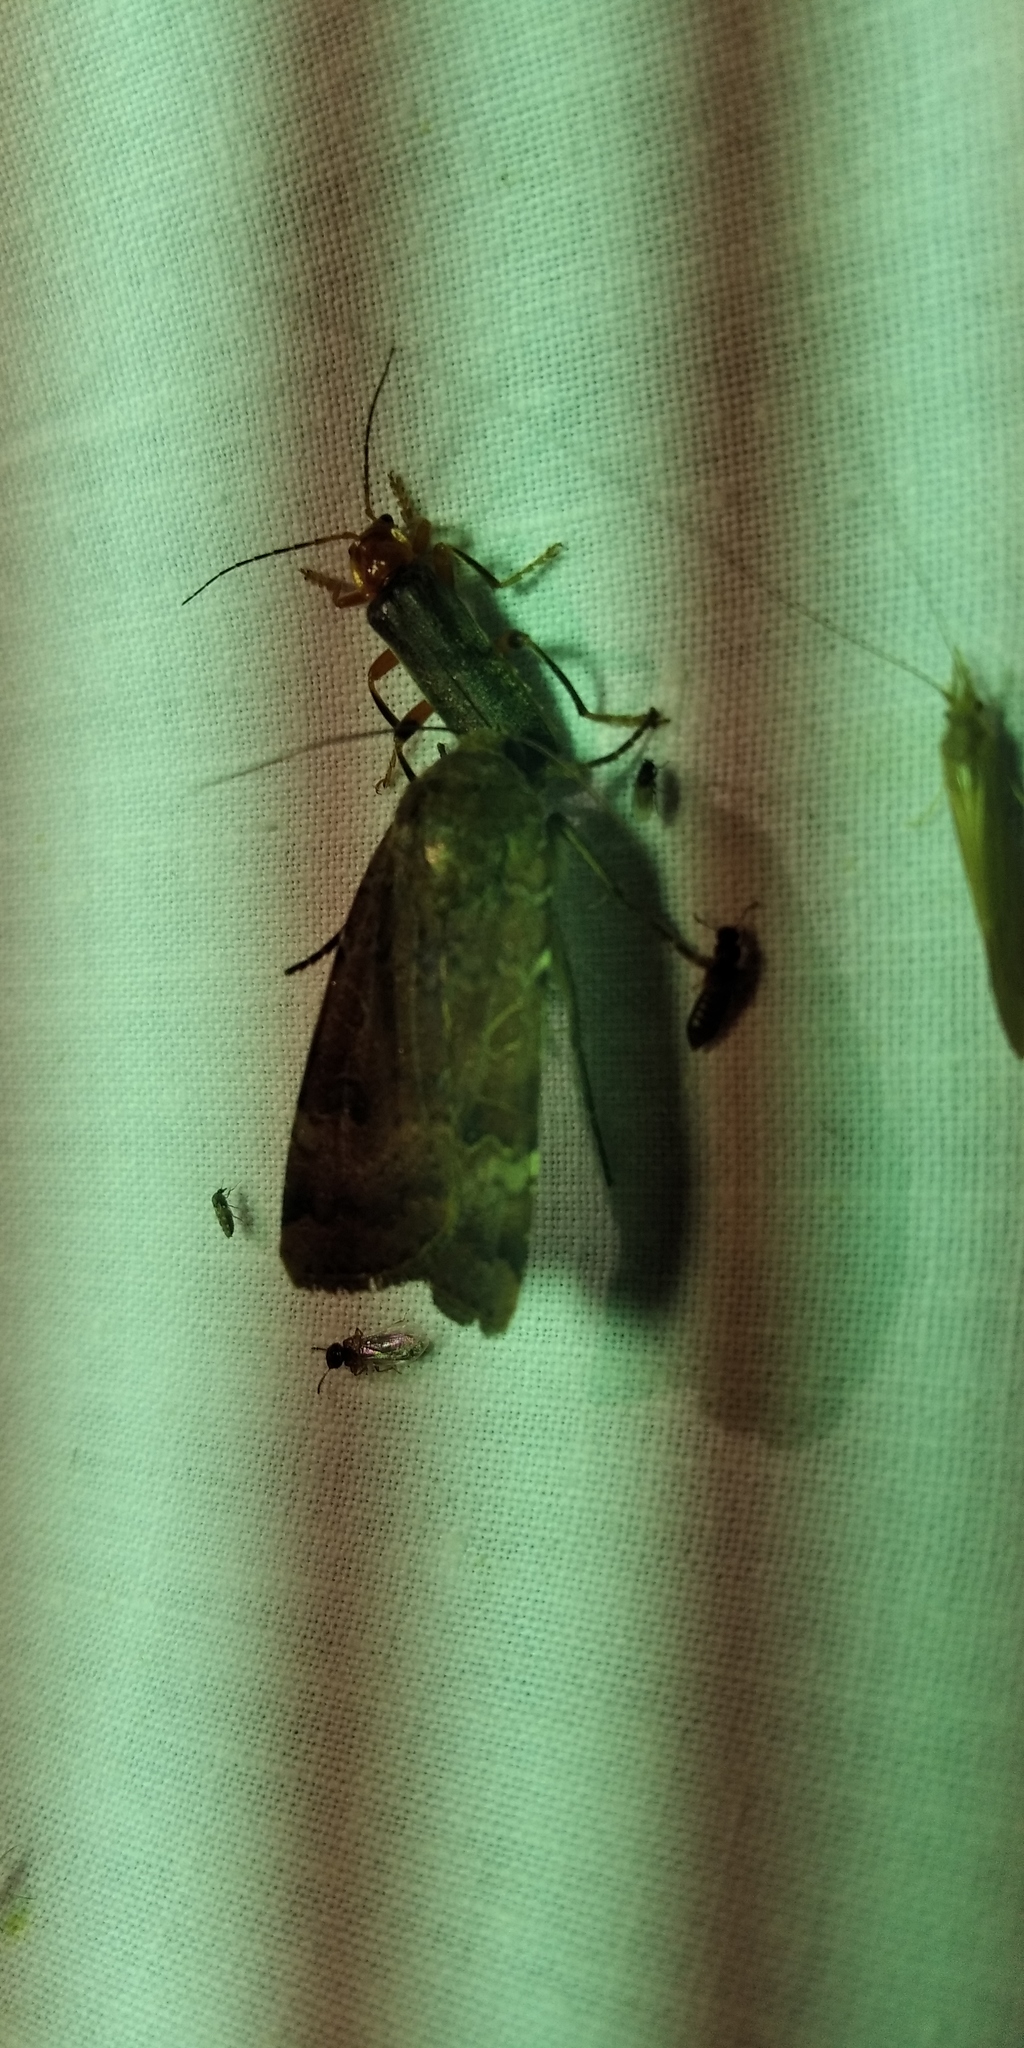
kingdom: Animalia
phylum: Arthropoda
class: Insecta
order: Lepidoptera
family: Noctuidae
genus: Noctua
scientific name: Noctua interposita
